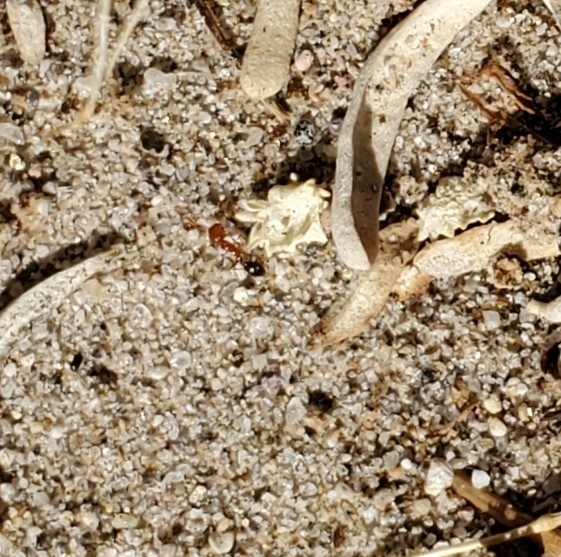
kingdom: Animalia
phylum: Arthropoda
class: Insecta
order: Hymenoptera
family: Formicidae
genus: Solenopsis
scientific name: Solenopsis xyloni
